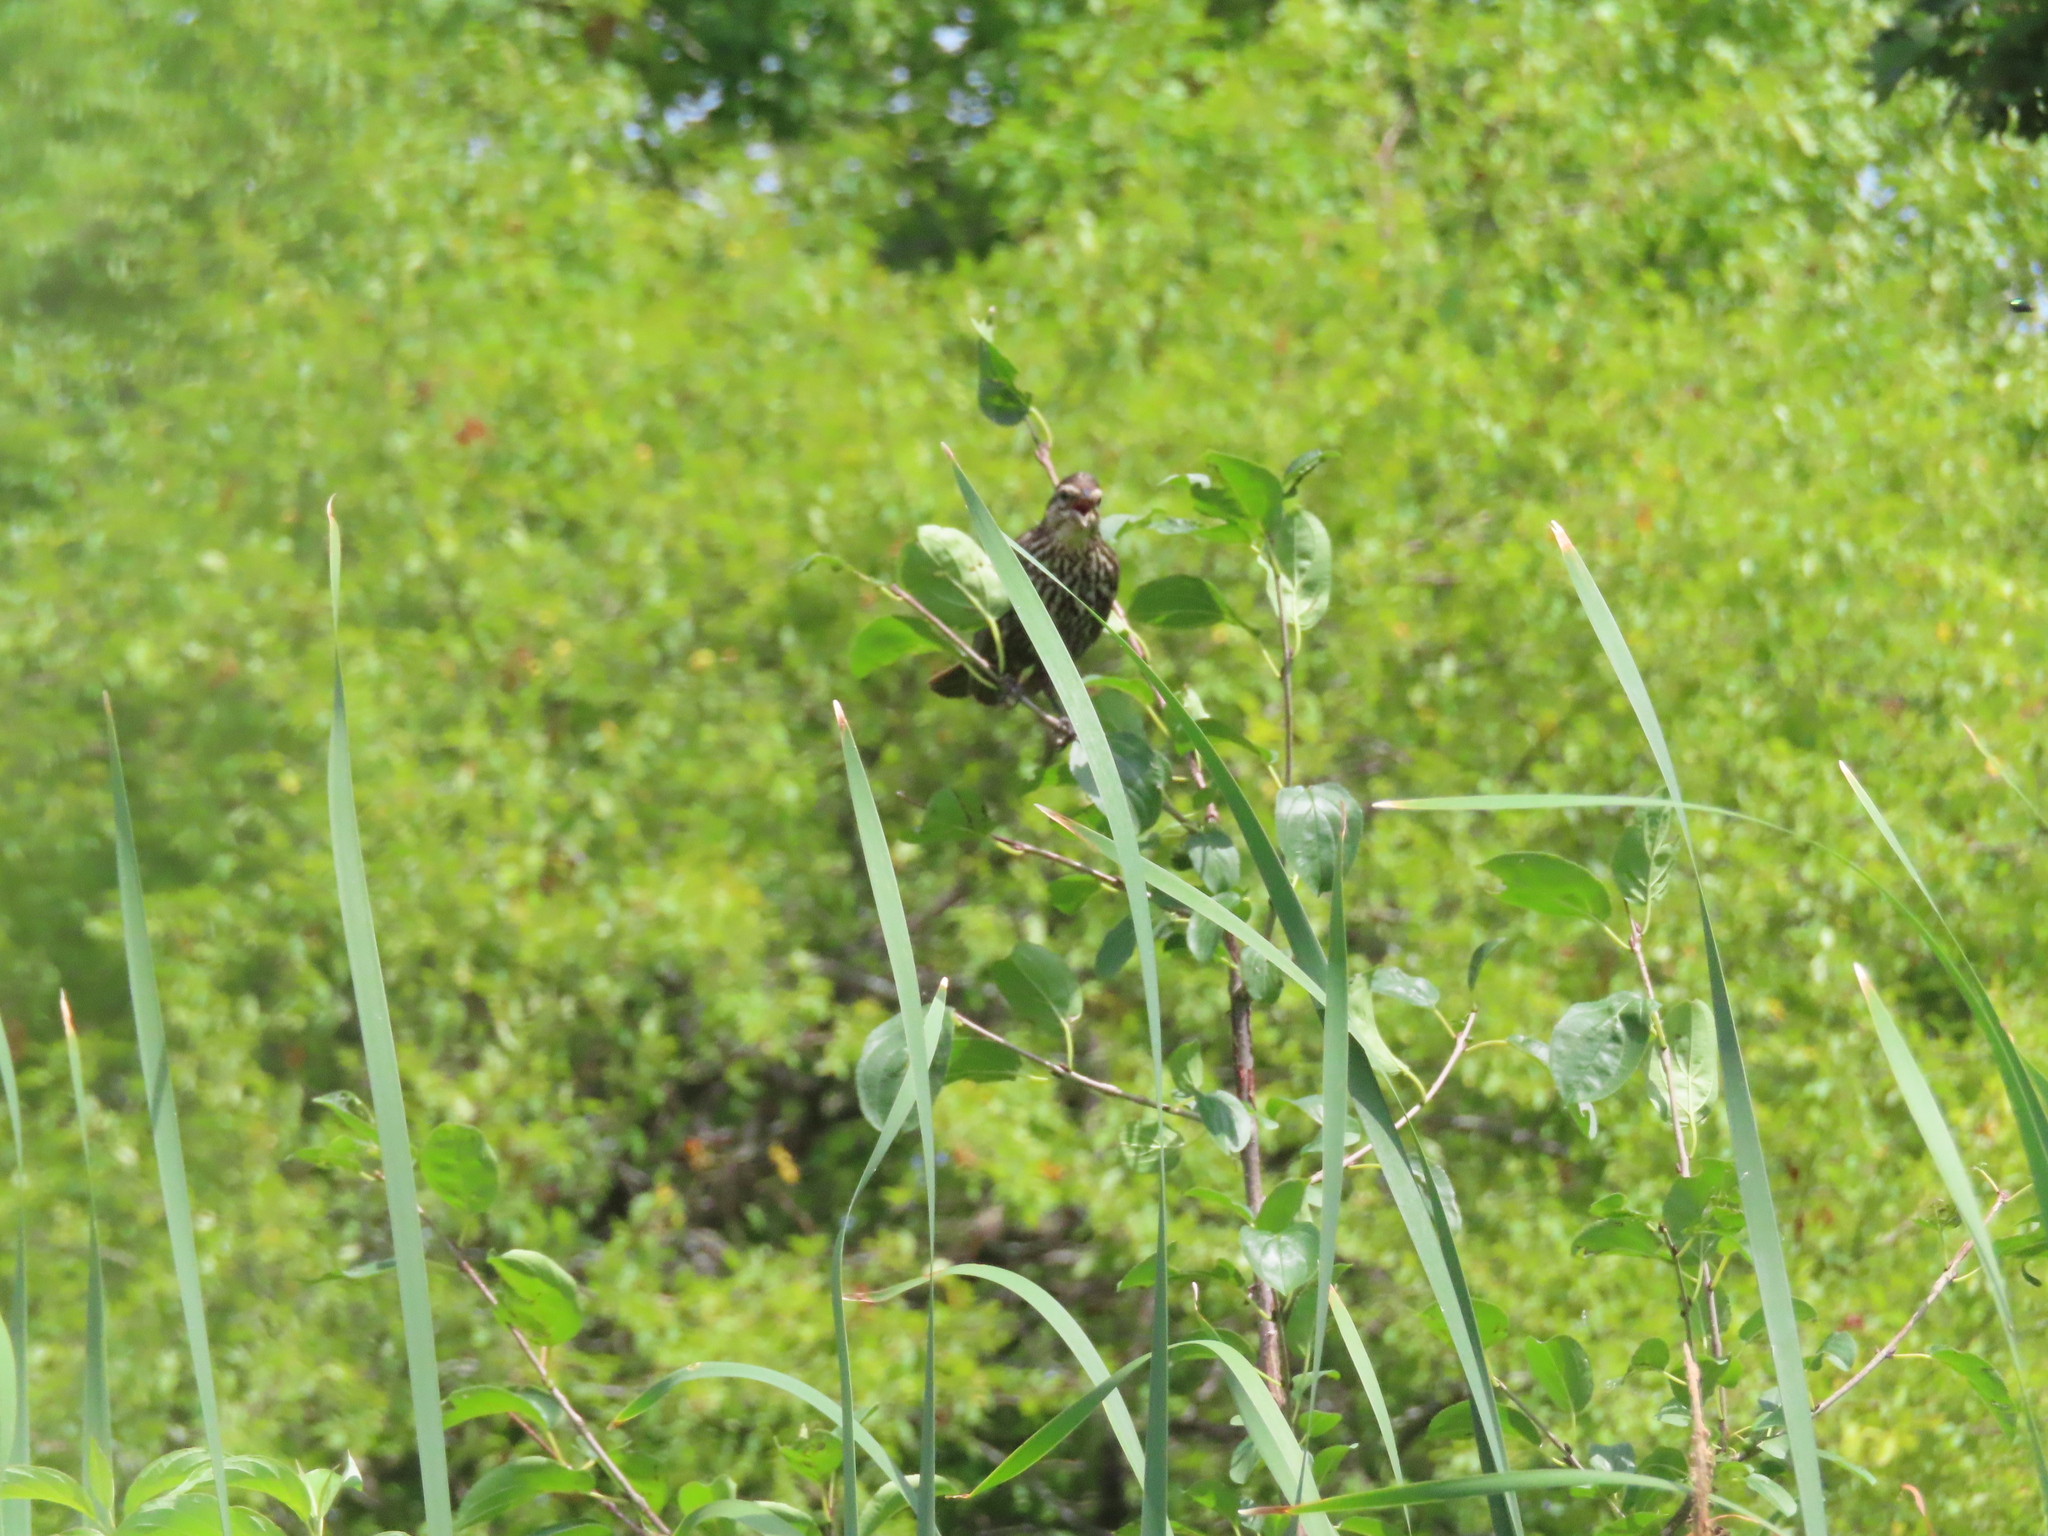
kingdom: Animalia
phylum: Chordata
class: Aves
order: Passeriformes
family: Icteridae
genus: Agelaius
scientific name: Agelaius phoeniceus
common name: Red-winged blackbird
